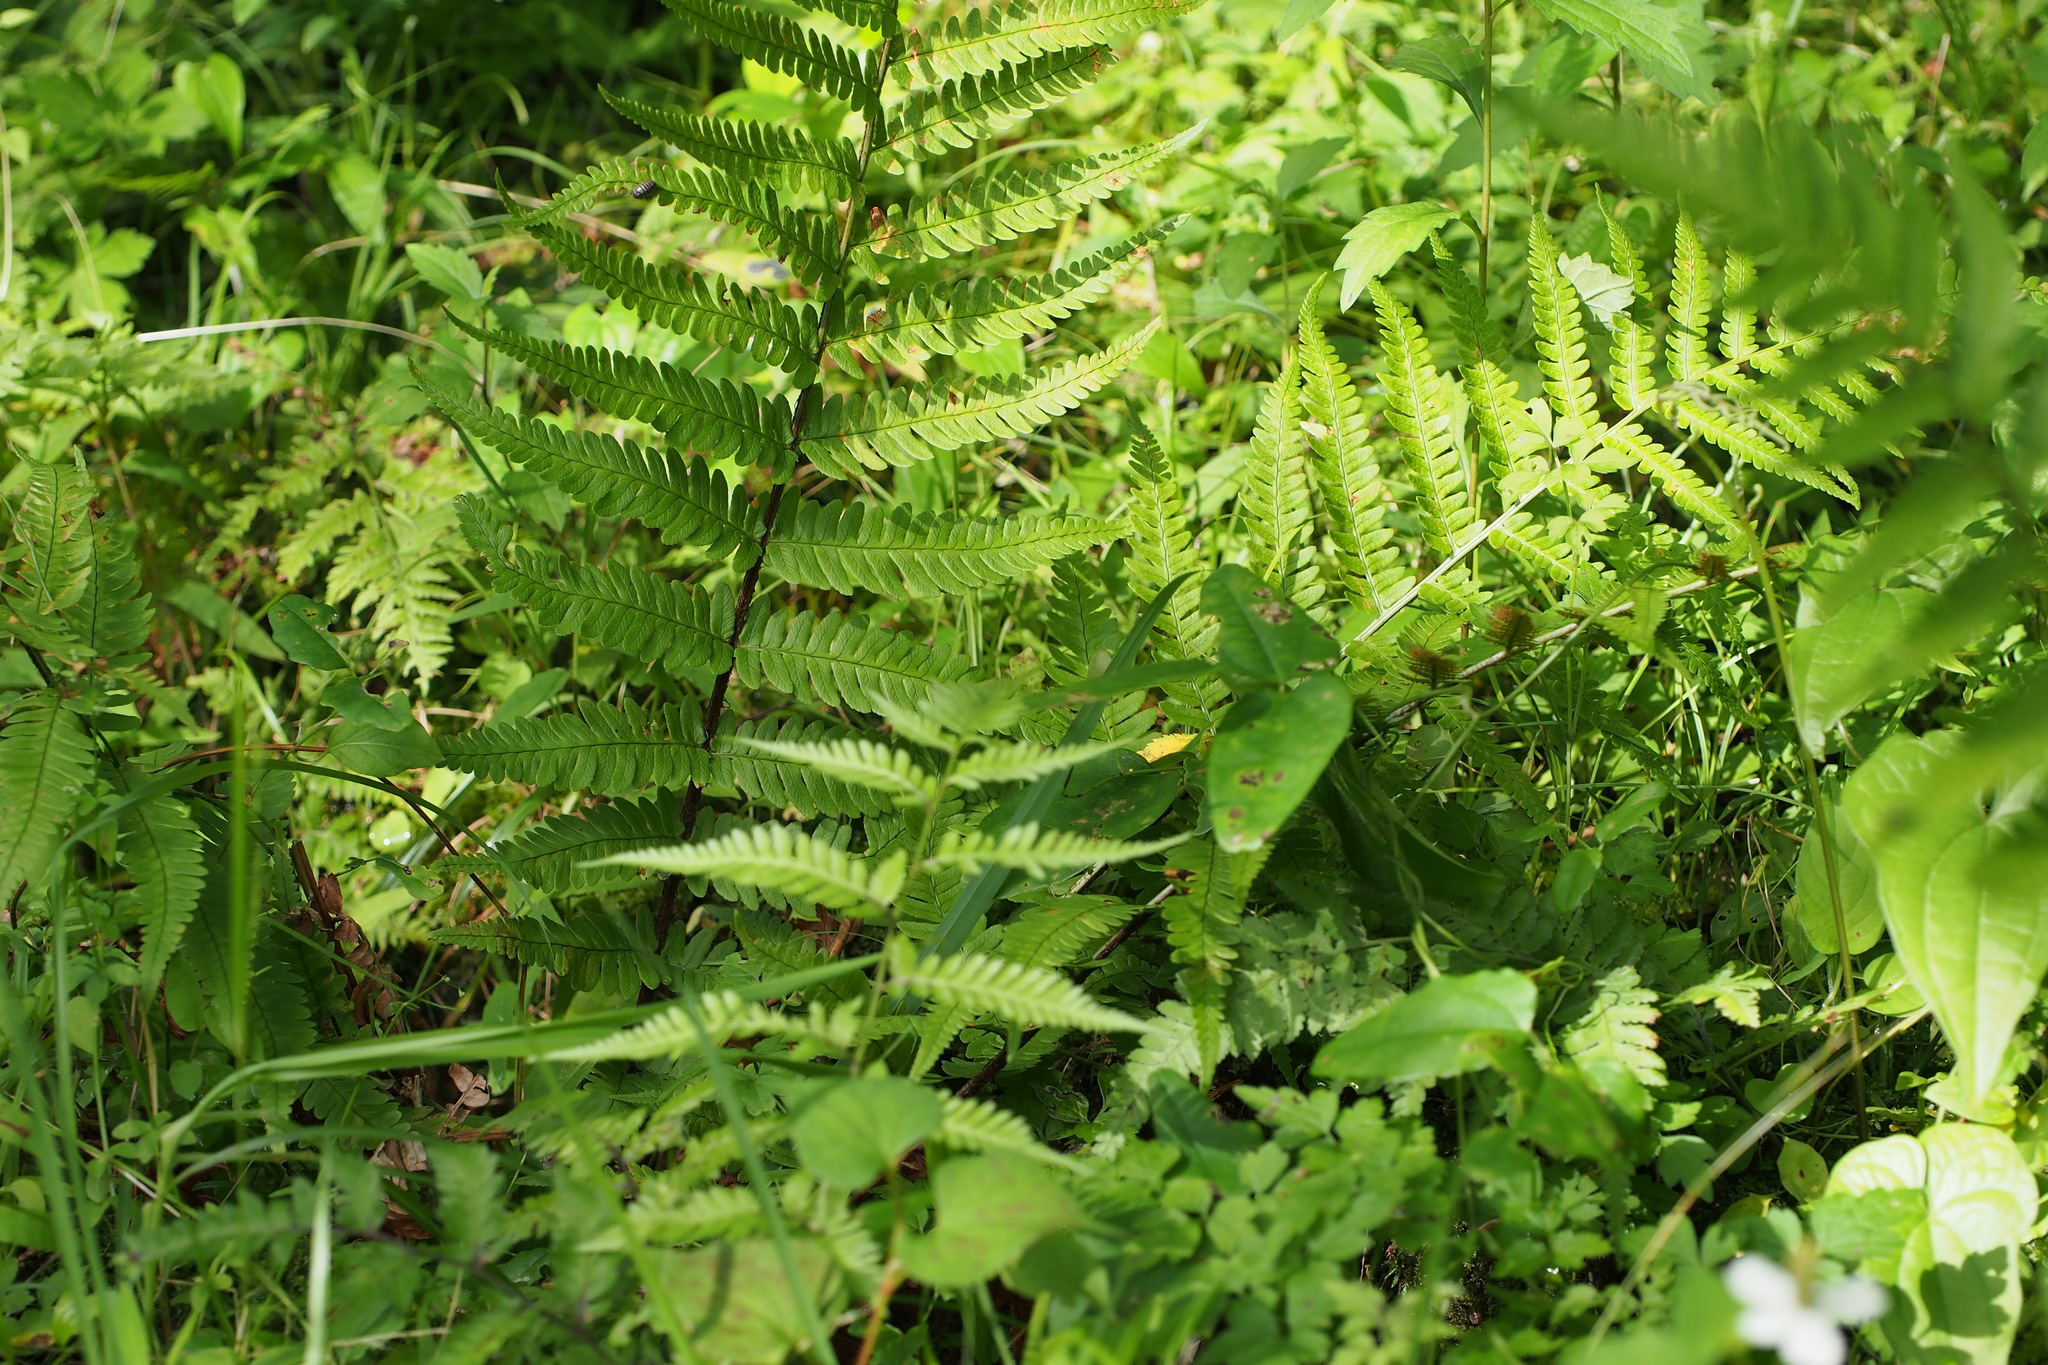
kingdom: Plantae
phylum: Tracheophyta
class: Polypodiopsida
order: Polypodiales
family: Dryopteridaceae
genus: Dryopteris
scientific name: Dryopteris uniformis
